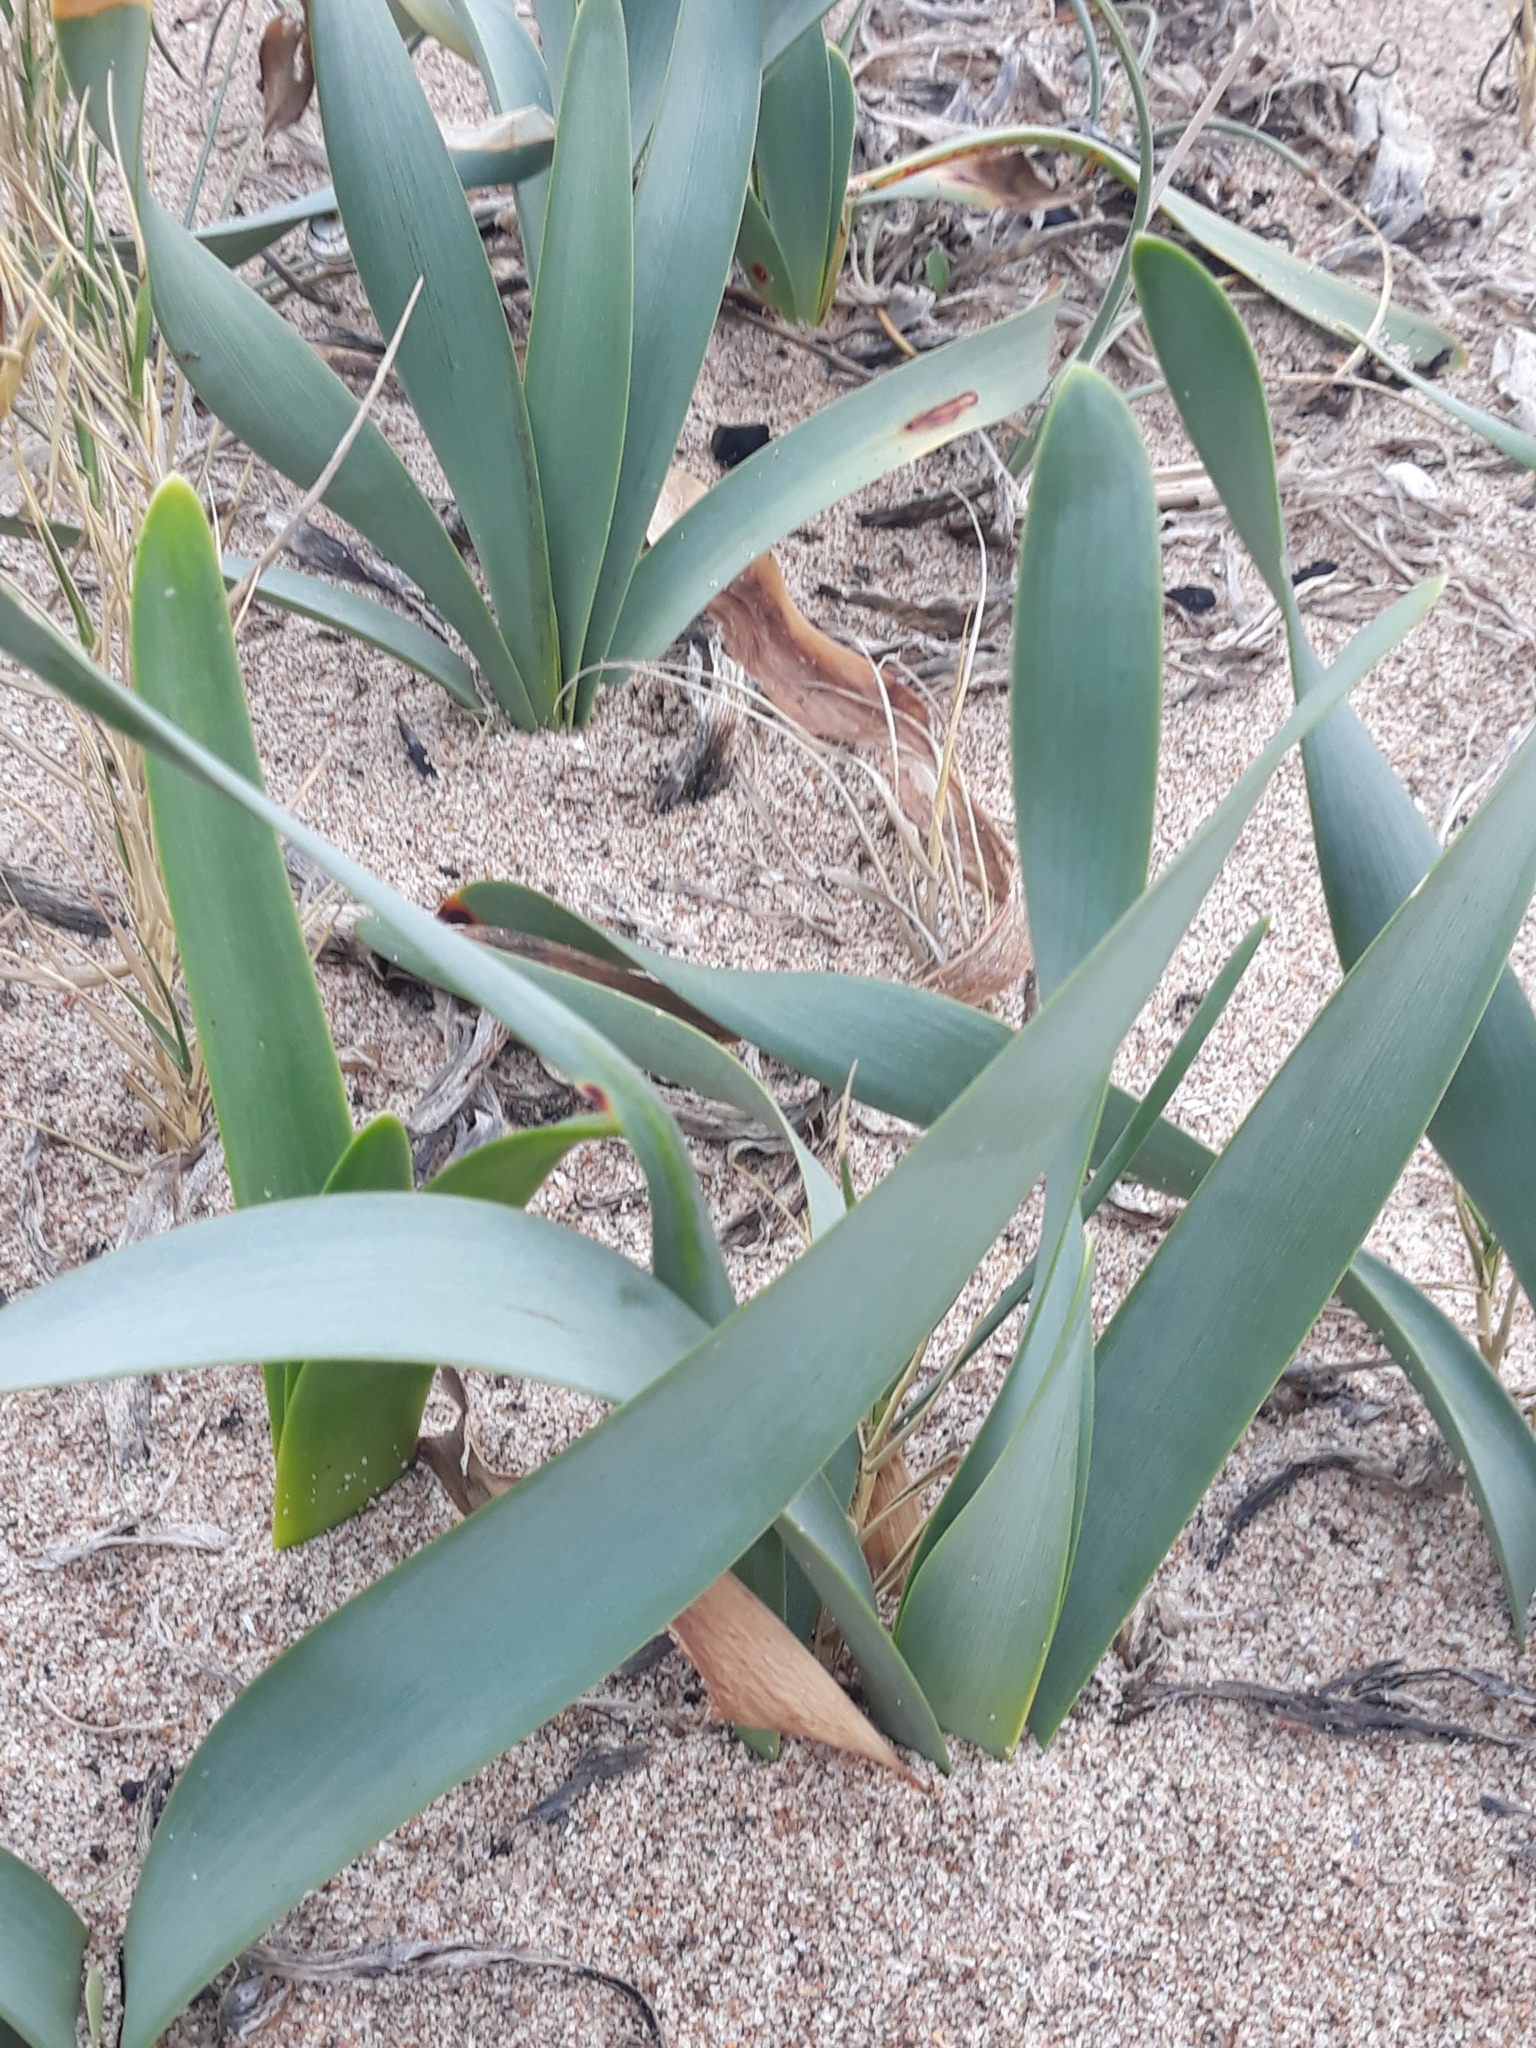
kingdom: Plantae
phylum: Tracheophyta
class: Liliopsida
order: Asparagales
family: Amaryllidaceae
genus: Pancratium
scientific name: Pancratium maritimum
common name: Sea-daffodil
